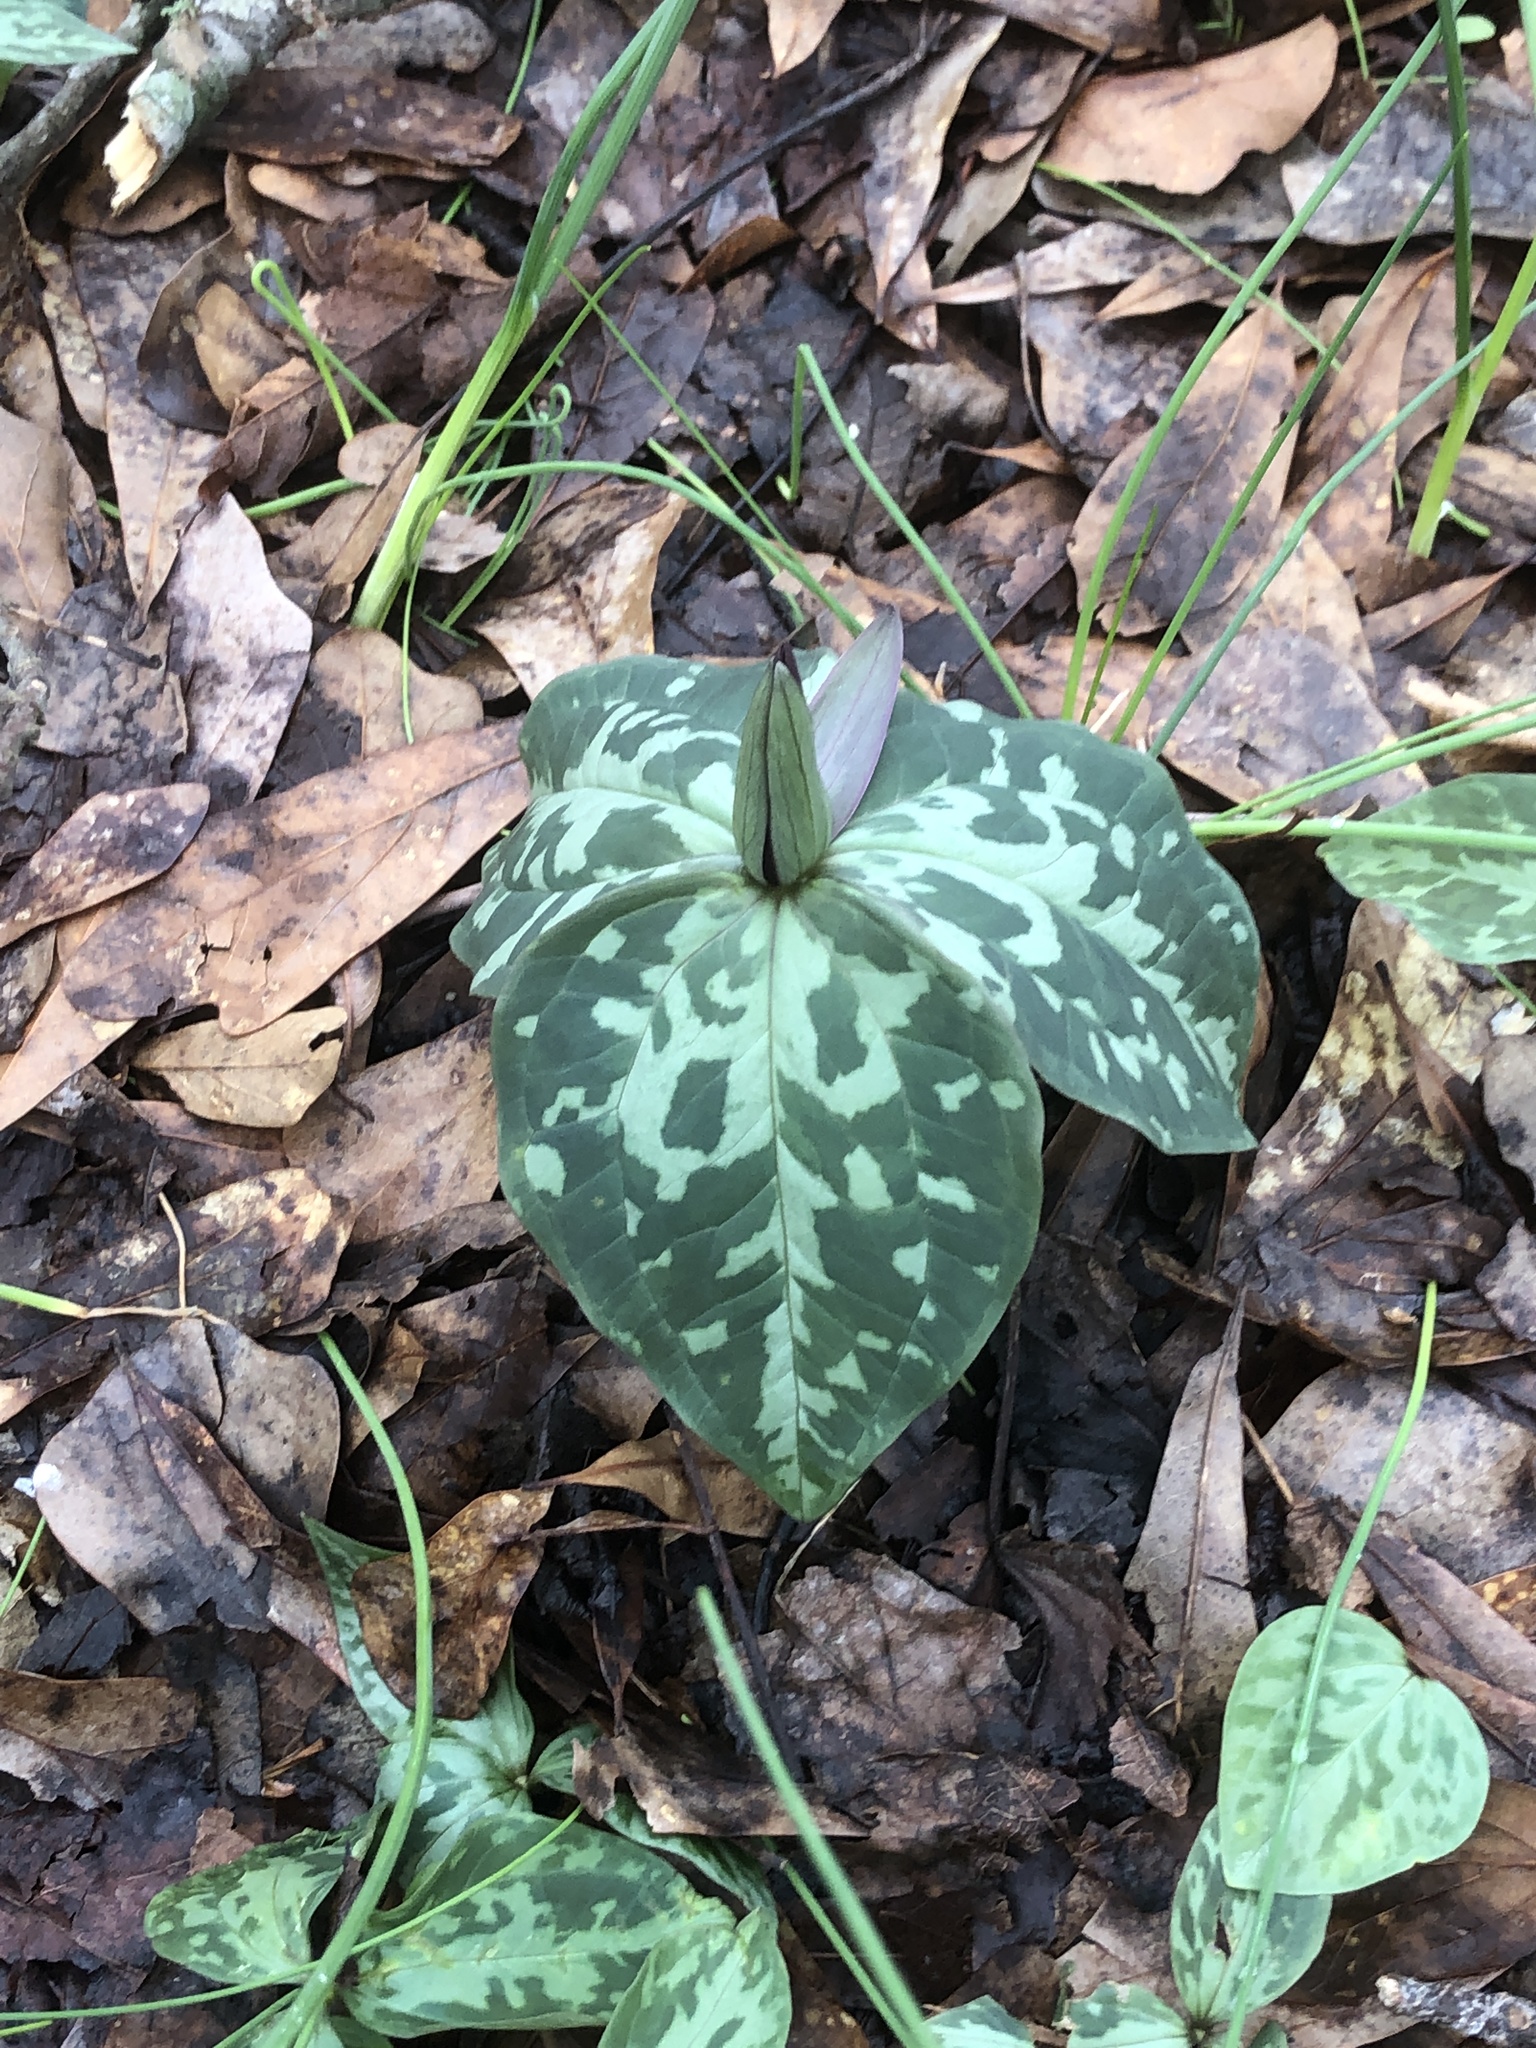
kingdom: Plantae
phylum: Tracheophyta
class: Liliopsida
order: Liliales
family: Melanthiaceae
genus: Trillium
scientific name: Trillium cuneatum
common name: Cuneate trillium
